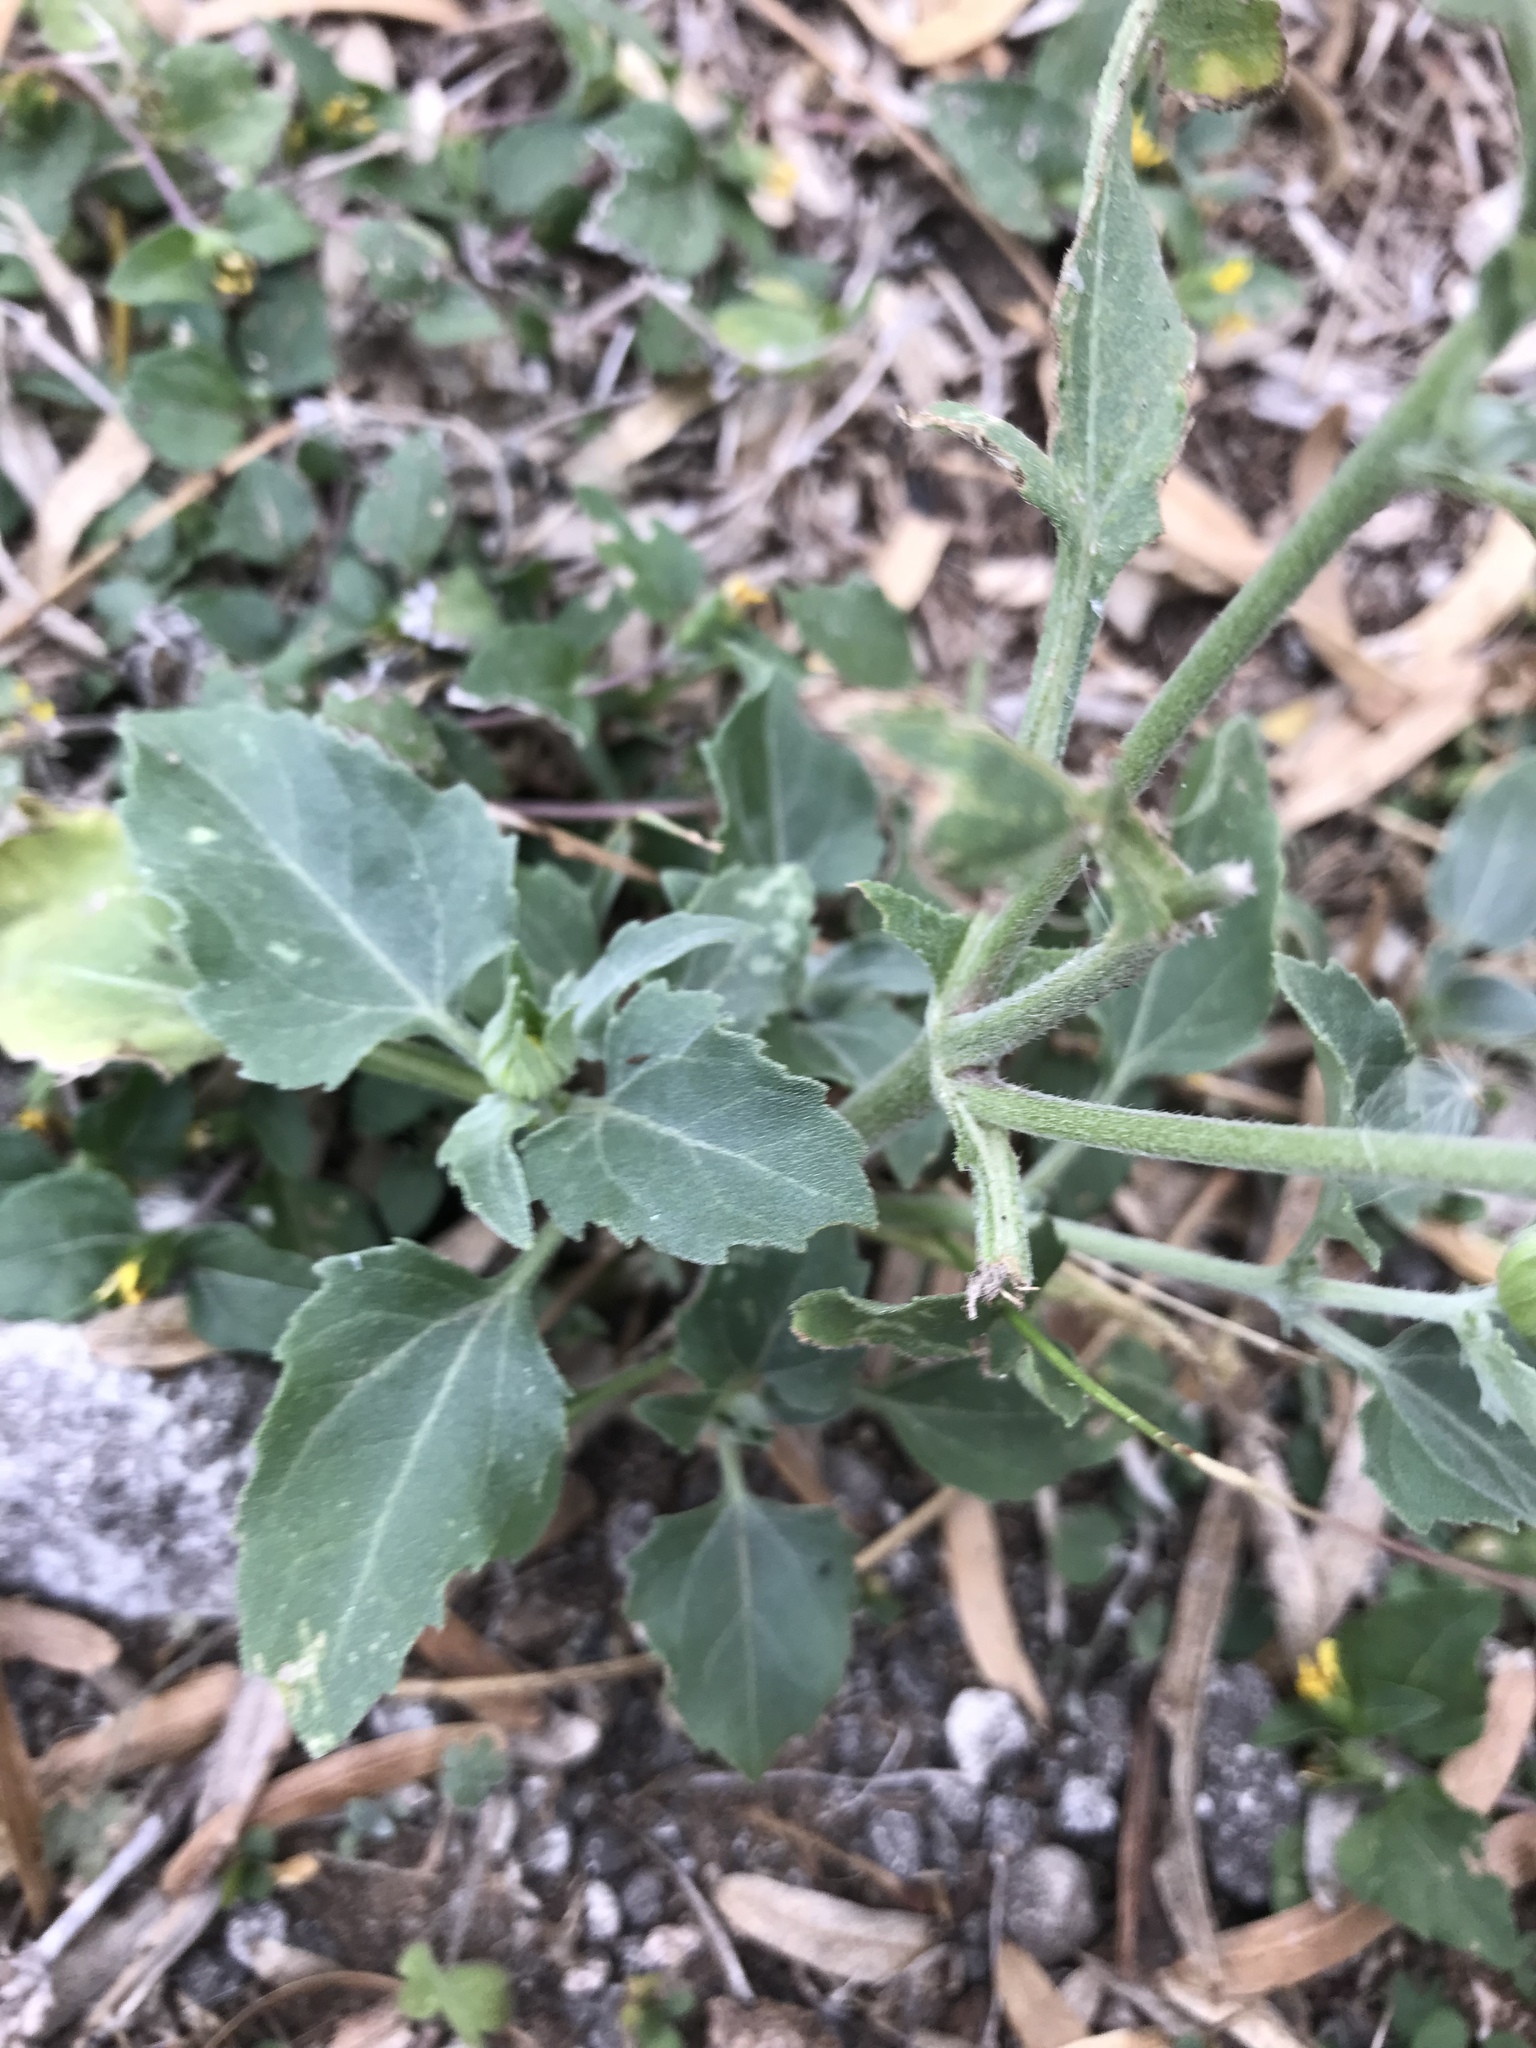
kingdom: Plantae
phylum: Tracheophyta
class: Magnoliopsida
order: Asterales
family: Asteraceae
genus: Verbesina
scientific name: Verbesina encelioides
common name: Golden crownbeard
